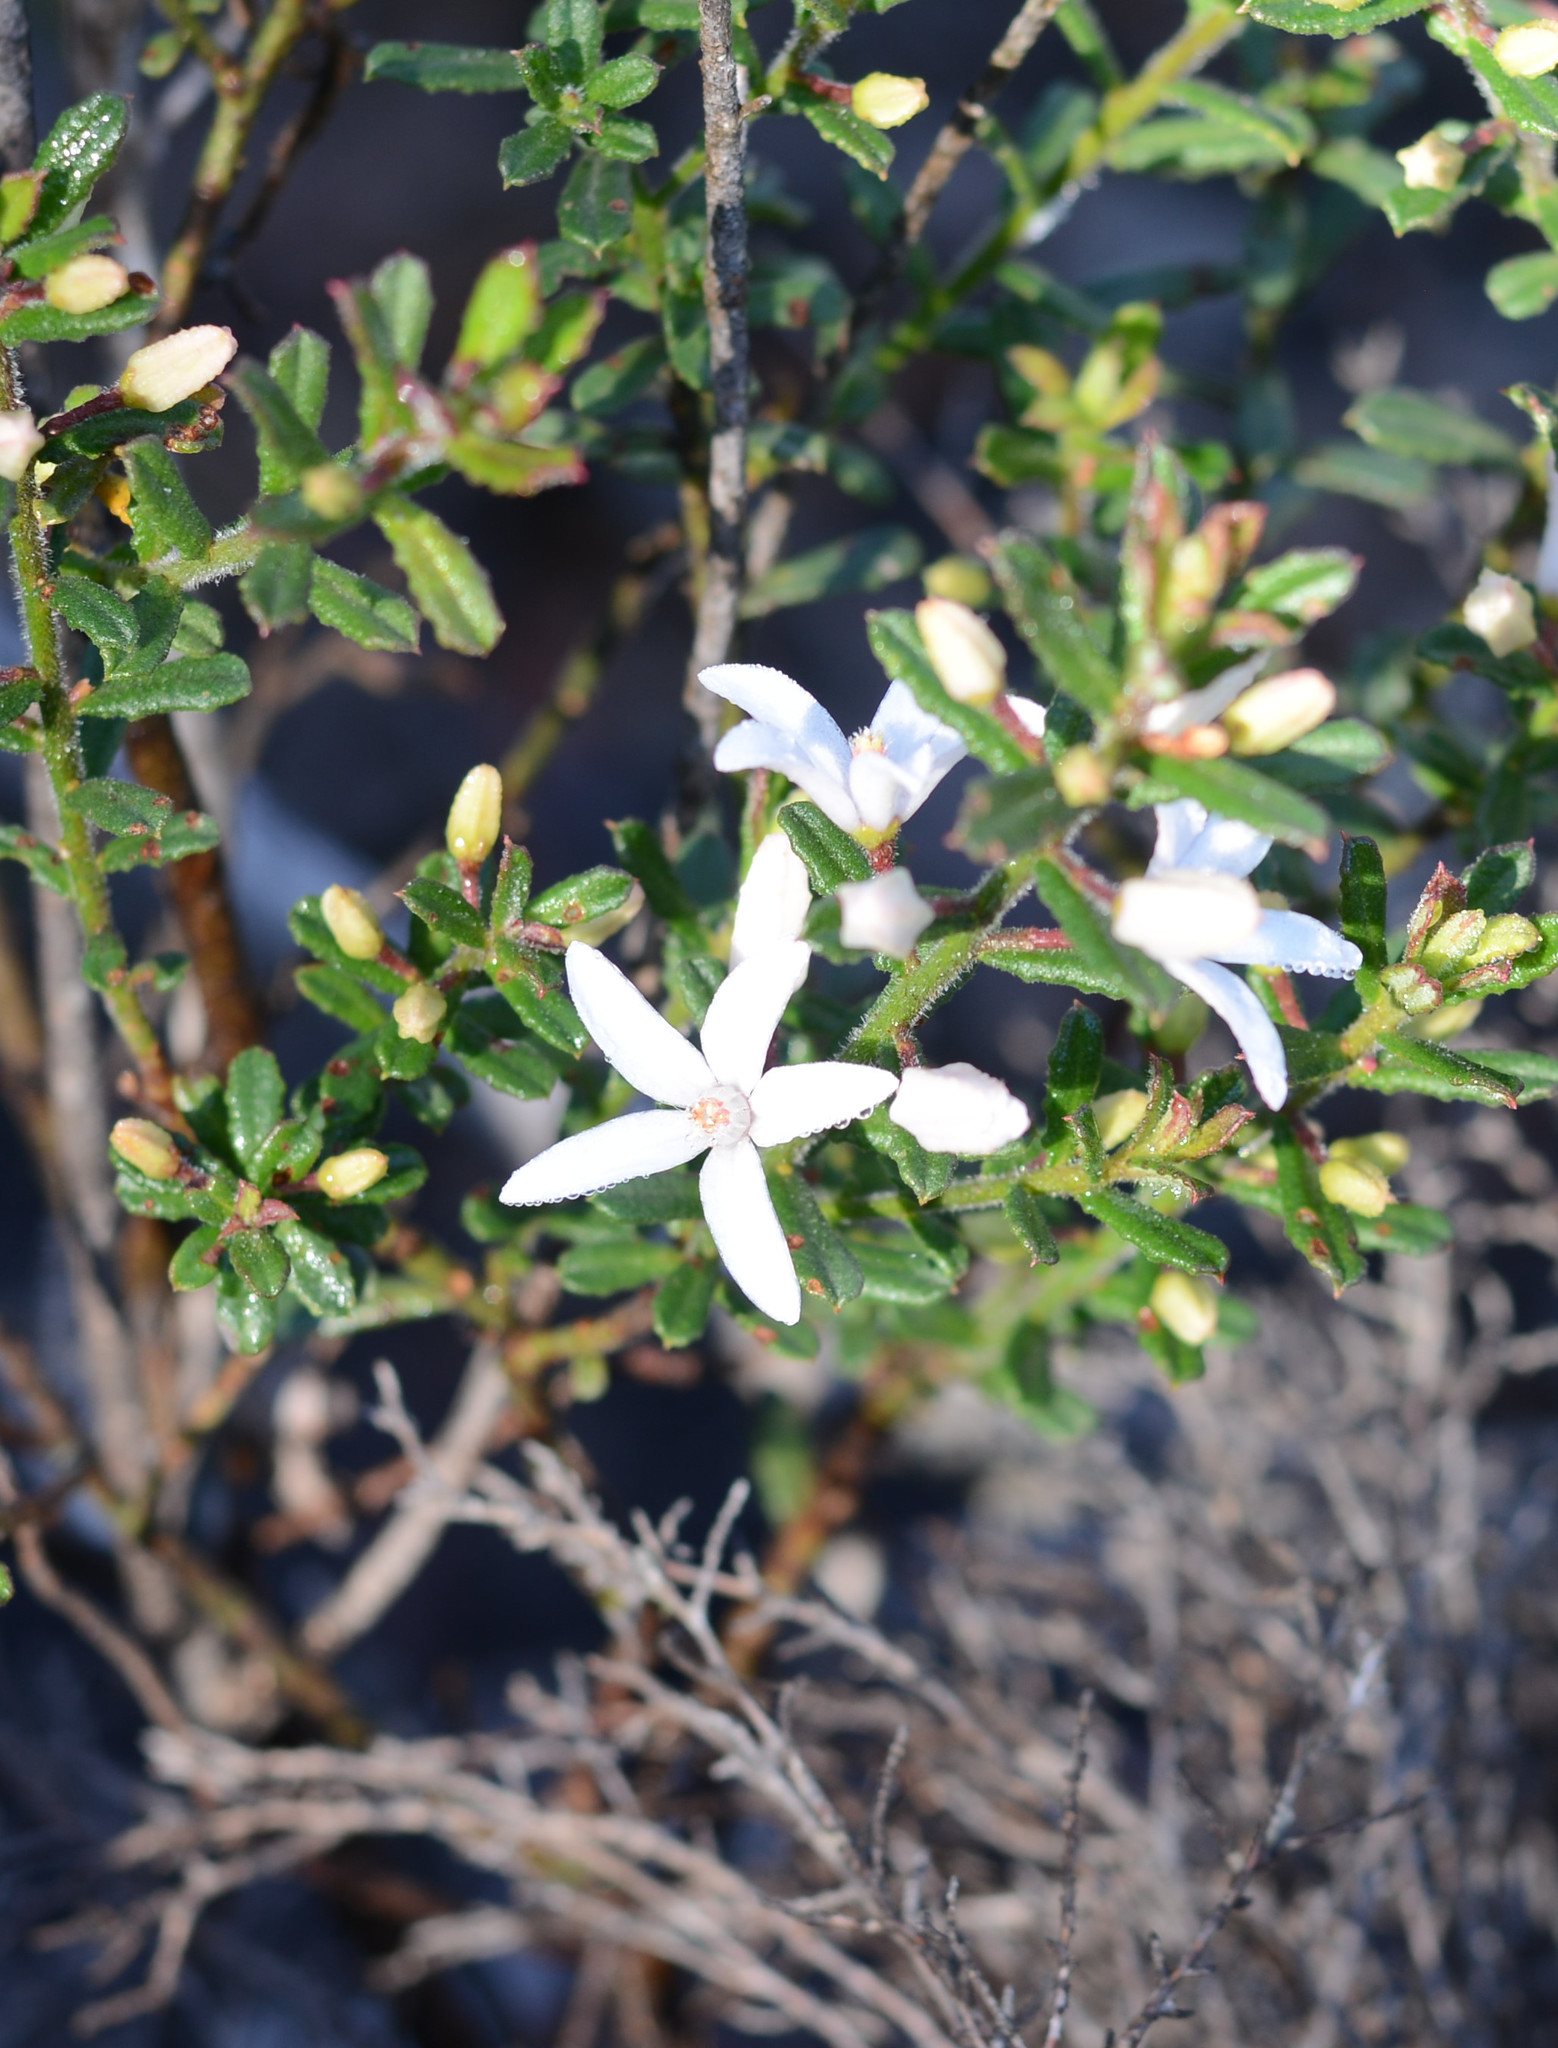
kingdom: Plantae
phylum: Tracheophyta
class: Magnoliopsida
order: Sapindales
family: Rutaceae
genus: Philotheca
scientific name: Philotheca hispidula
